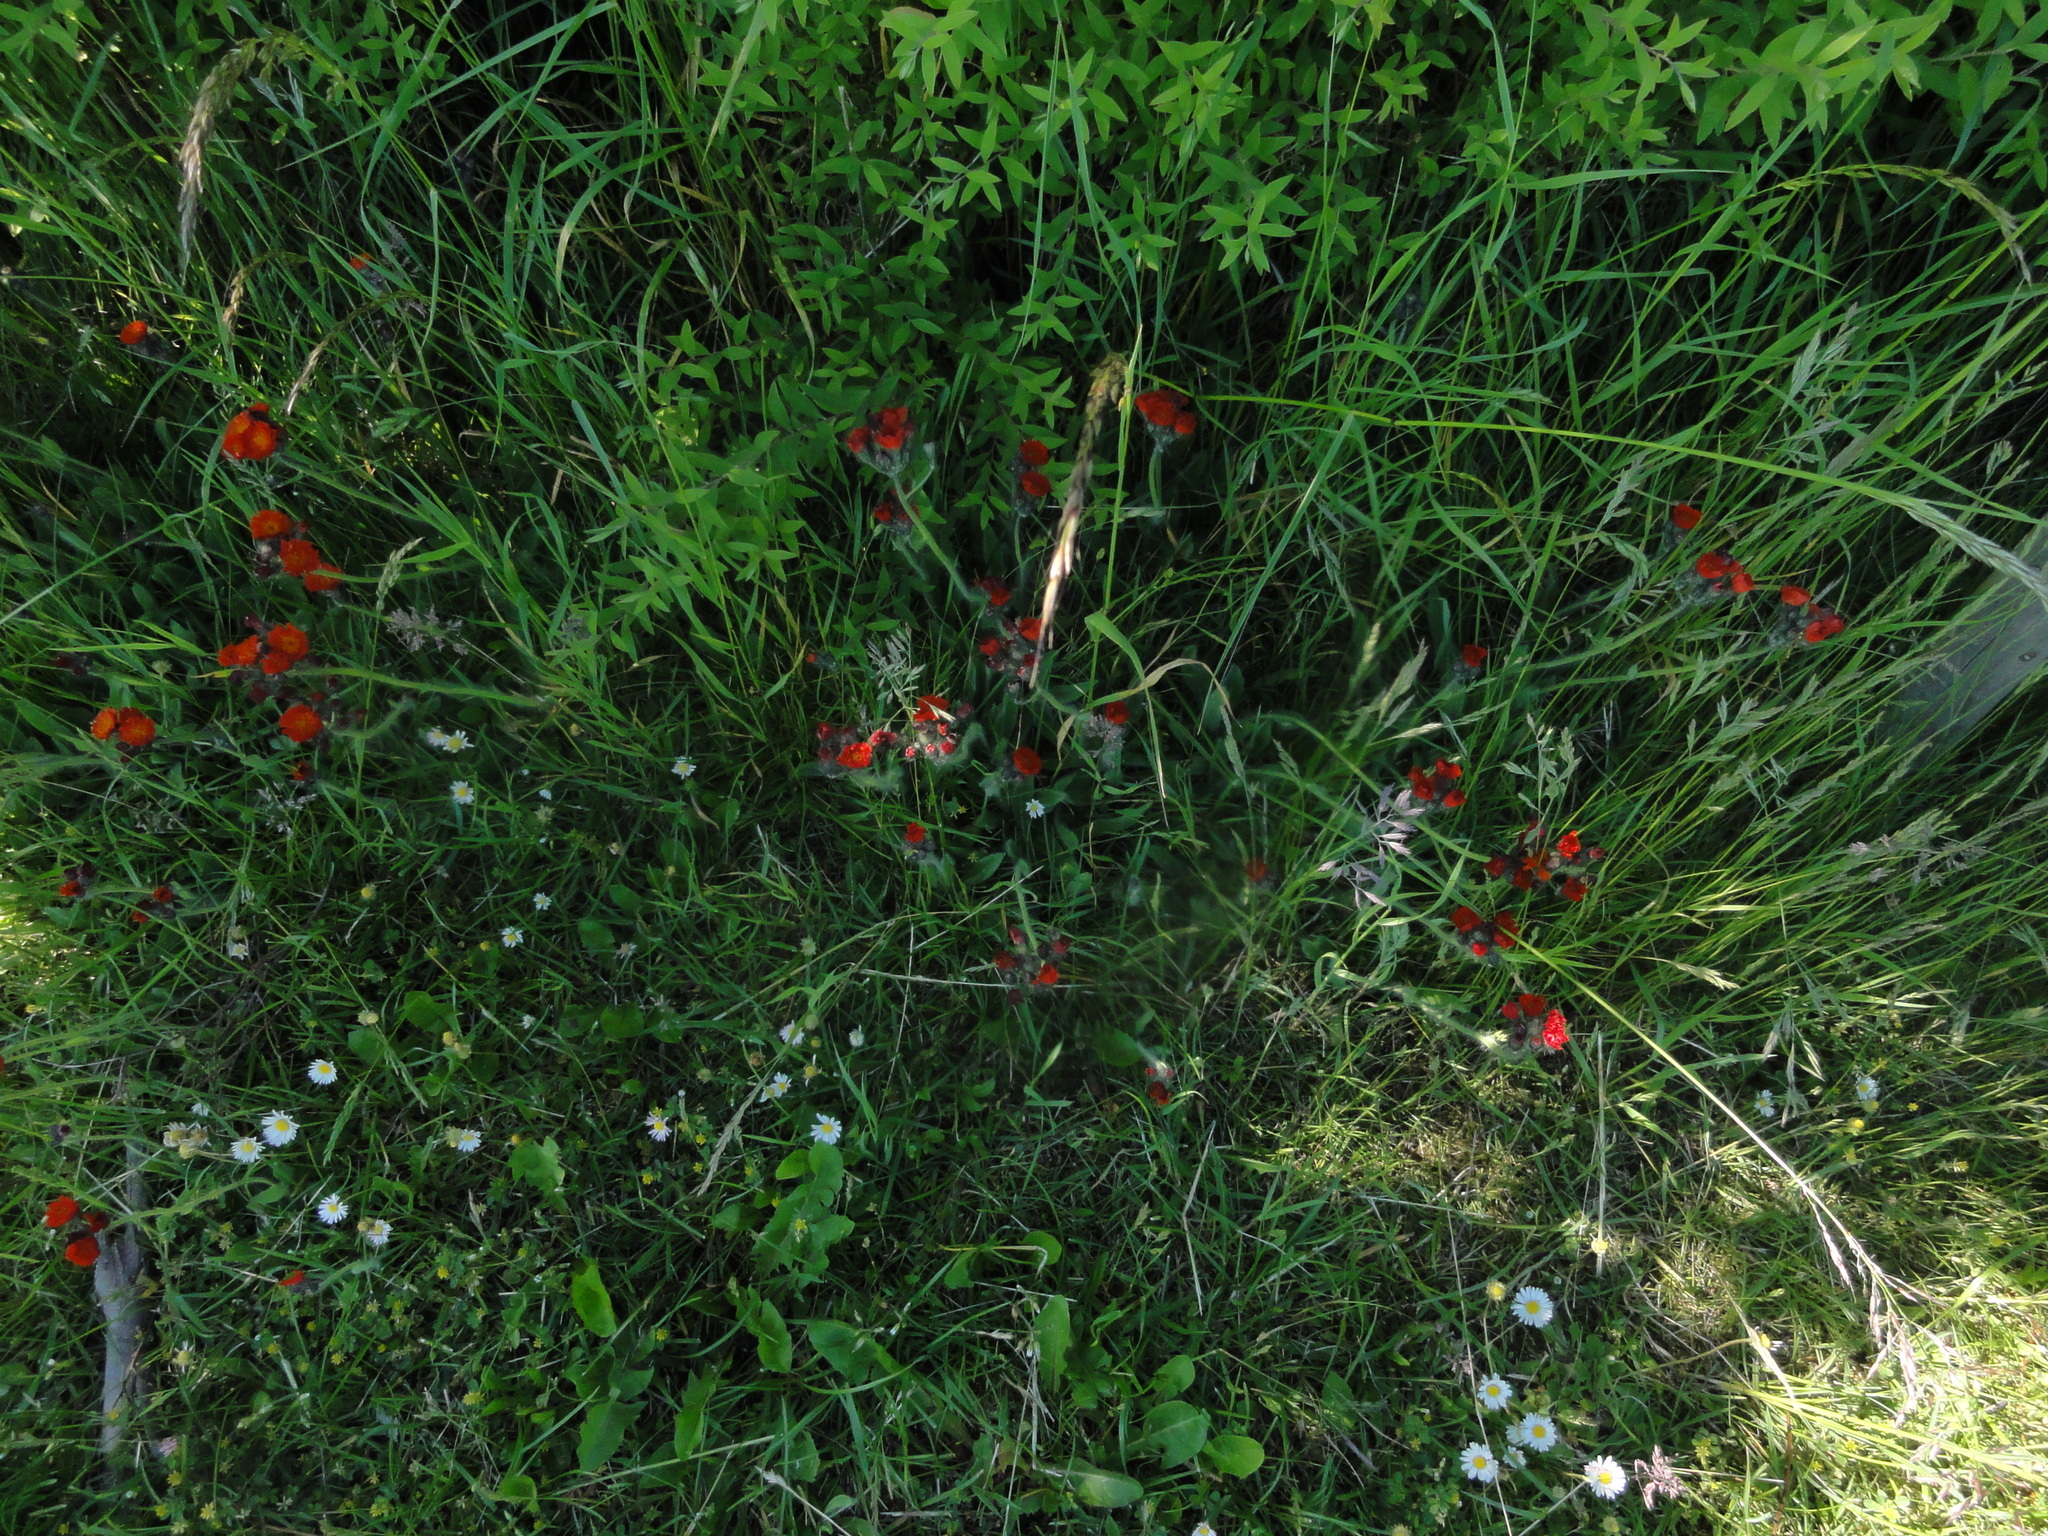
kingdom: Plantae
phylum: Tracheophyta
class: Magnoliopsida
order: Asterales
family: Asteraceae
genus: Pilosella
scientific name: Pilosella aurantiaca
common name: Fox-and-cubs
